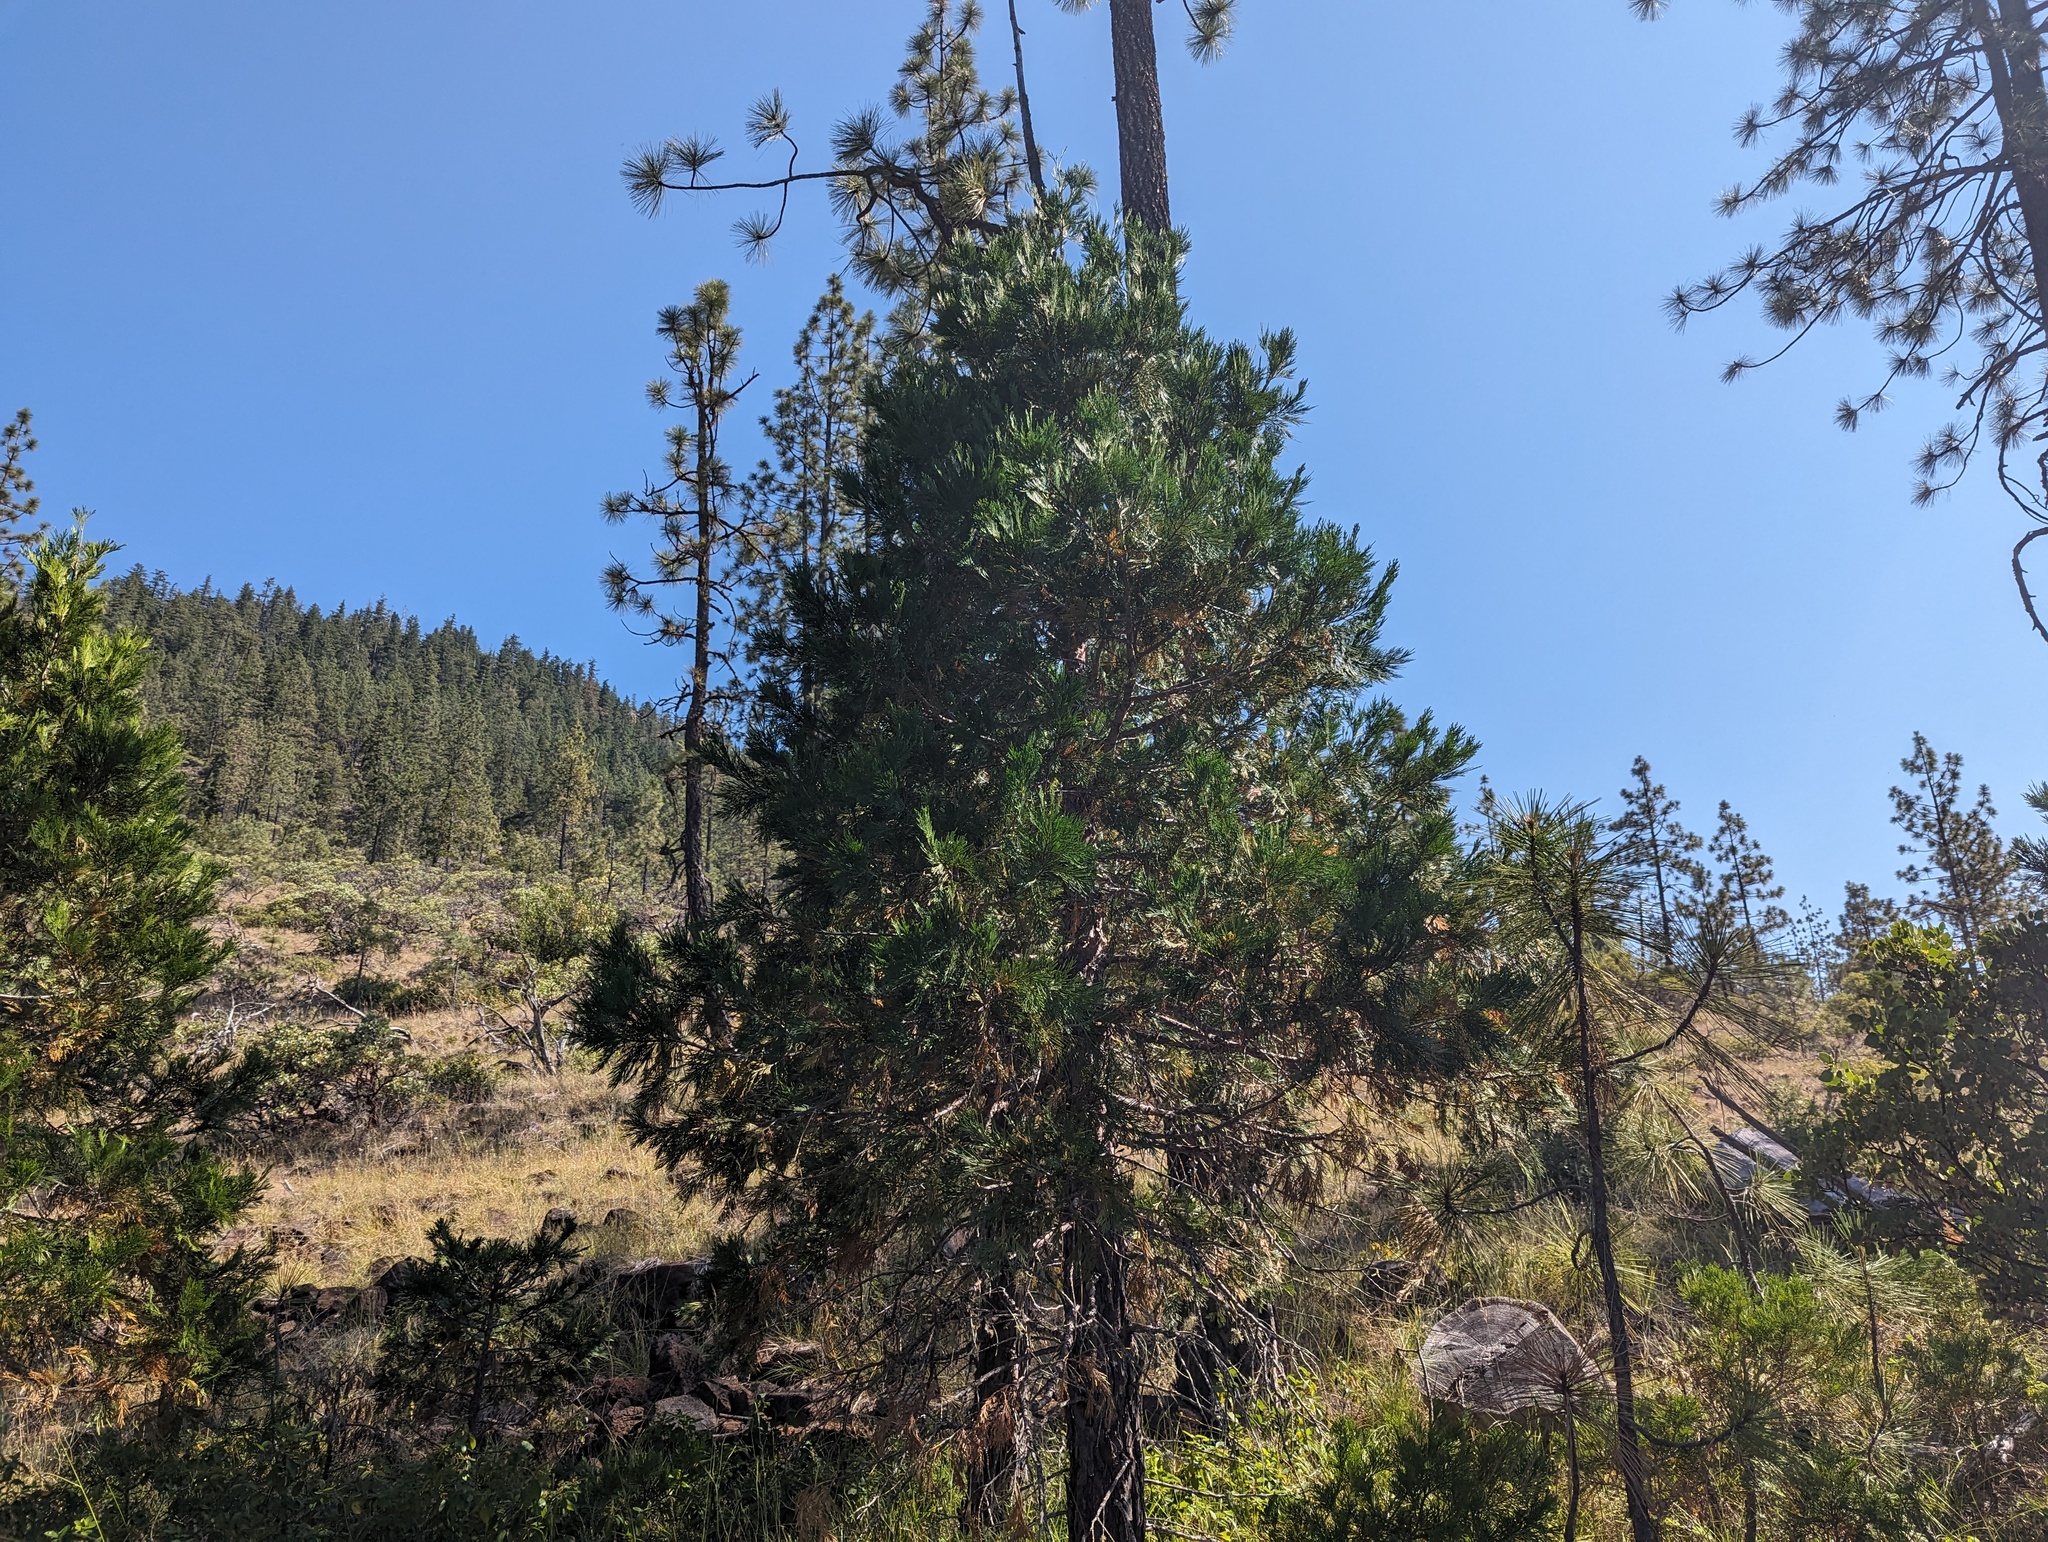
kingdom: Plantae
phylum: Tracheophyta
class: Pinopsida
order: Pinales
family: Cupressaceae
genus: Calocedrus
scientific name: Calocedrus decurrens
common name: Californian incense-cedar
